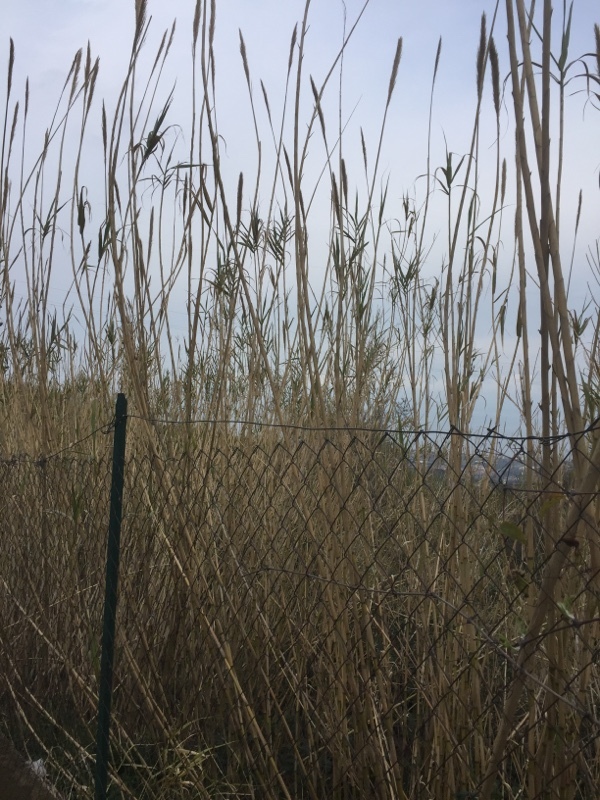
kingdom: Plantae
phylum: Tracheophyta
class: Liliopsida
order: Poales
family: Poaceae
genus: Arundo
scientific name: Arundo donax
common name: Giant reed
